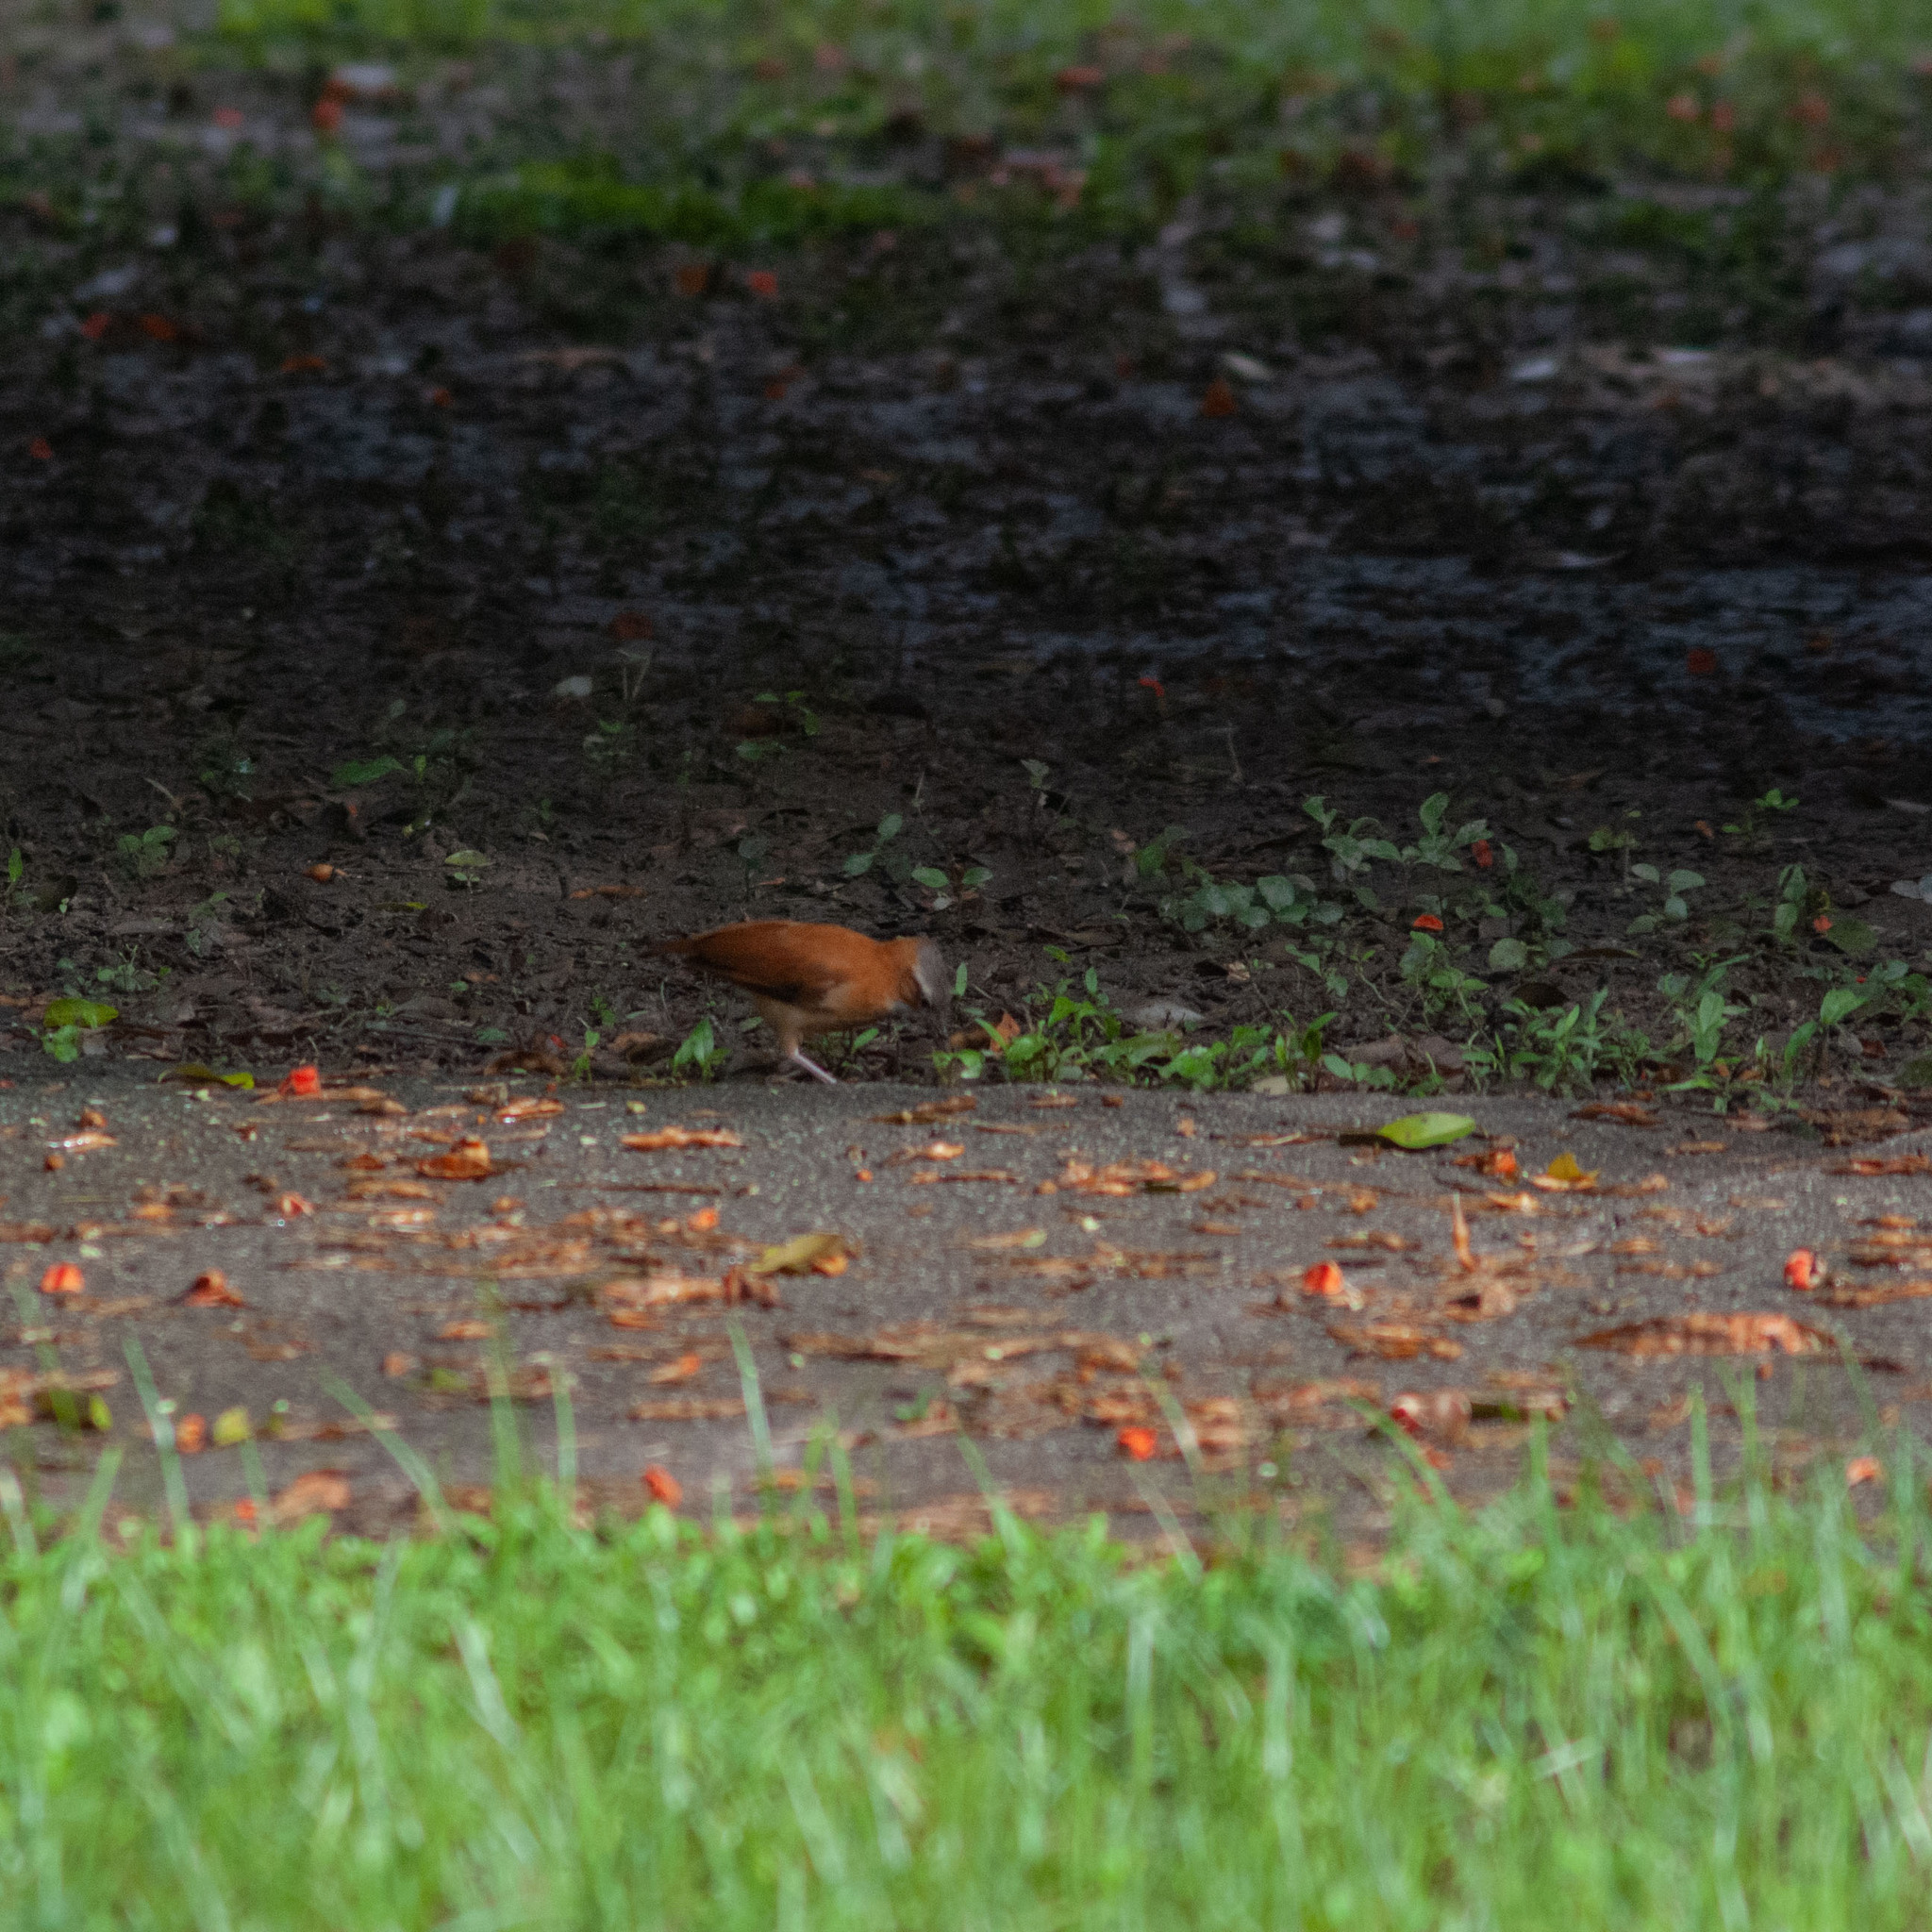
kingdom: Animalia
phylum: Chordata
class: Aves
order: Passeriformes
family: Furnariidae
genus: Furnarius
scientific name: Furnarius longirostris
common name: Caribbean hornero
